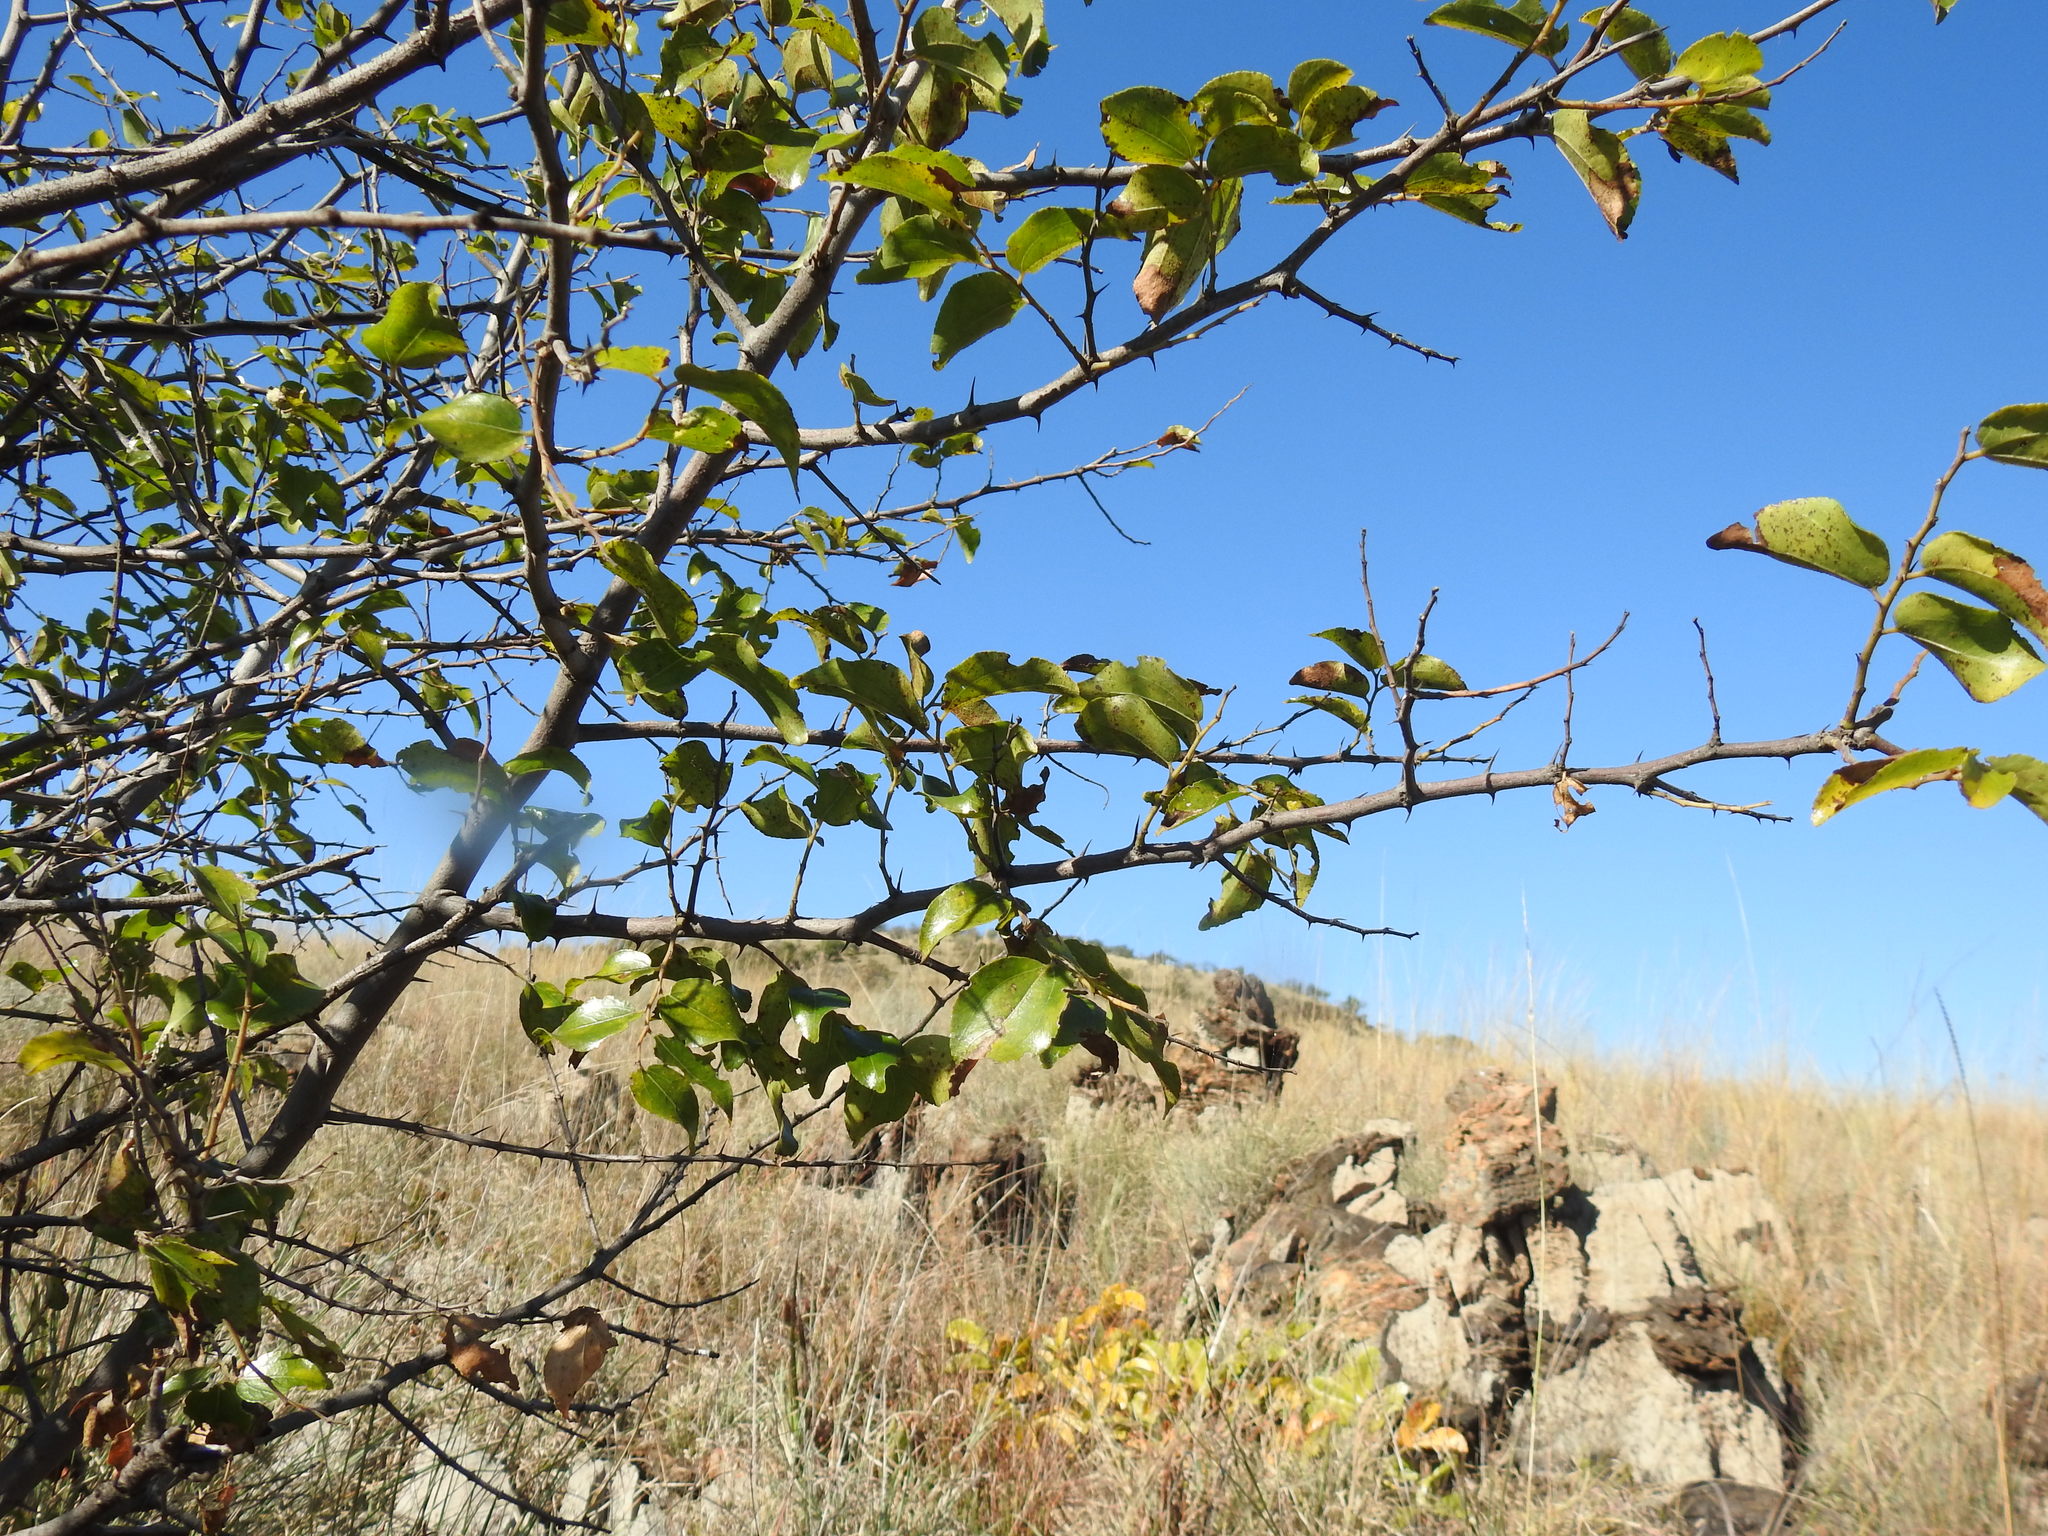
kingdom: Plantae
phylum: Tracheophyta
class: Magnoliopsida
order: Rosales
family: Rhamnaceae
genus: Ziziphus
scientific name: Ziziphus mucronata
